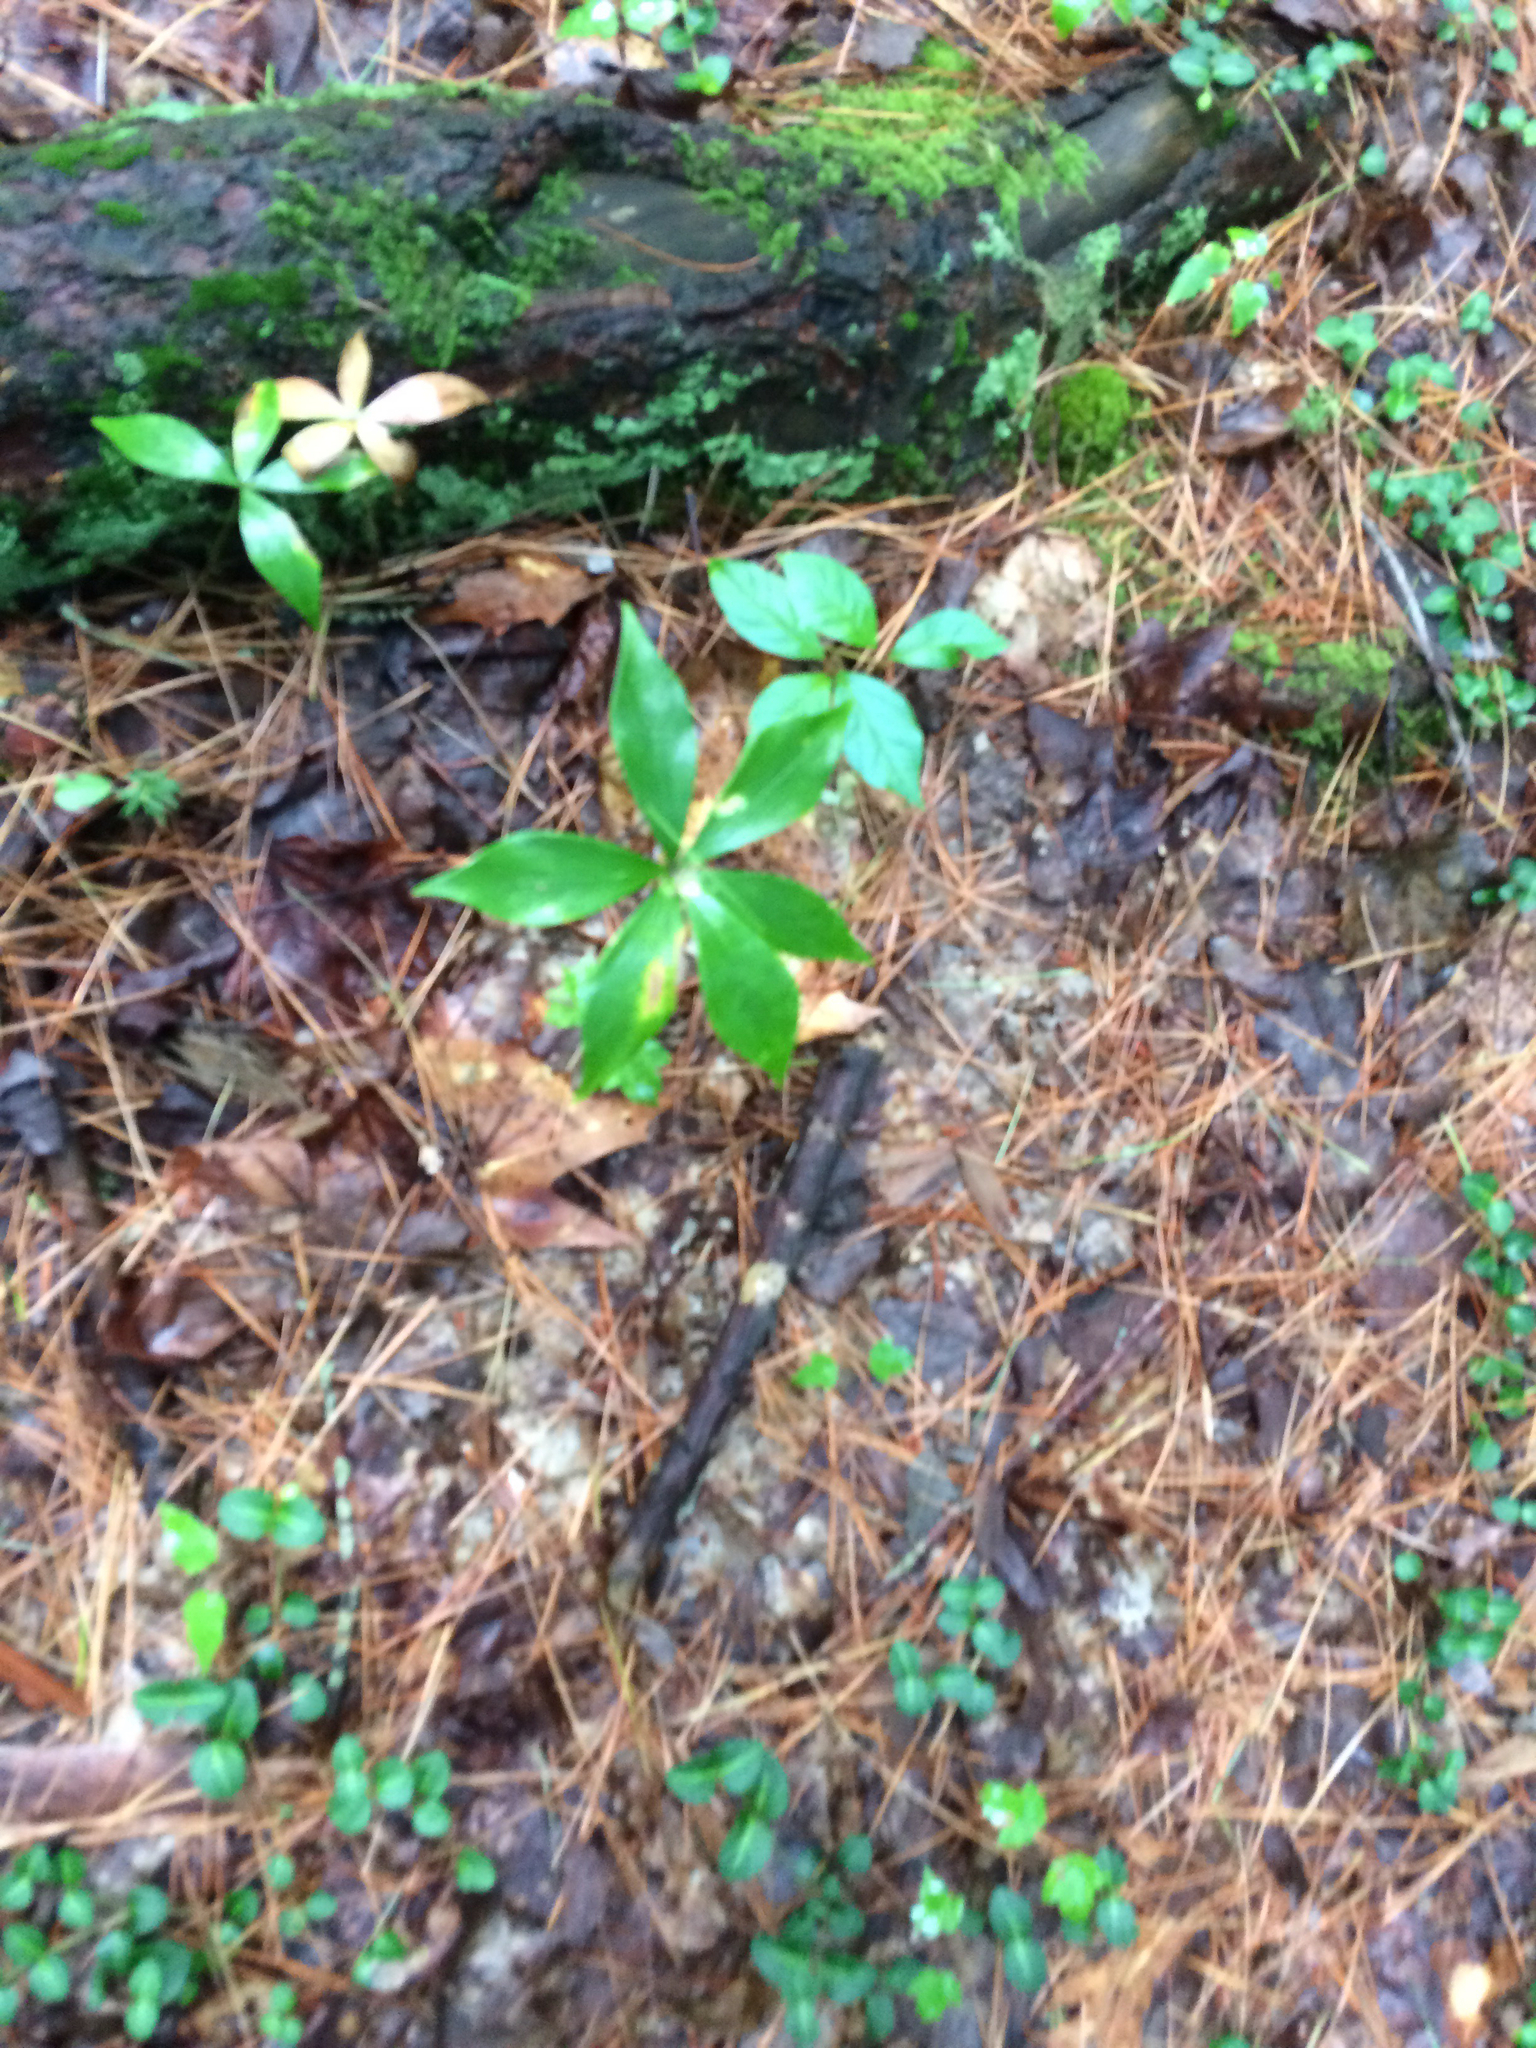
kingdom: Plantae
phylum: Tracheophyta
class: Magnoliopsida
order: Ericales
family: Primulaceae
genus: Lysimachia
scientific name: Lysimachia borealis
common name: American starflower
